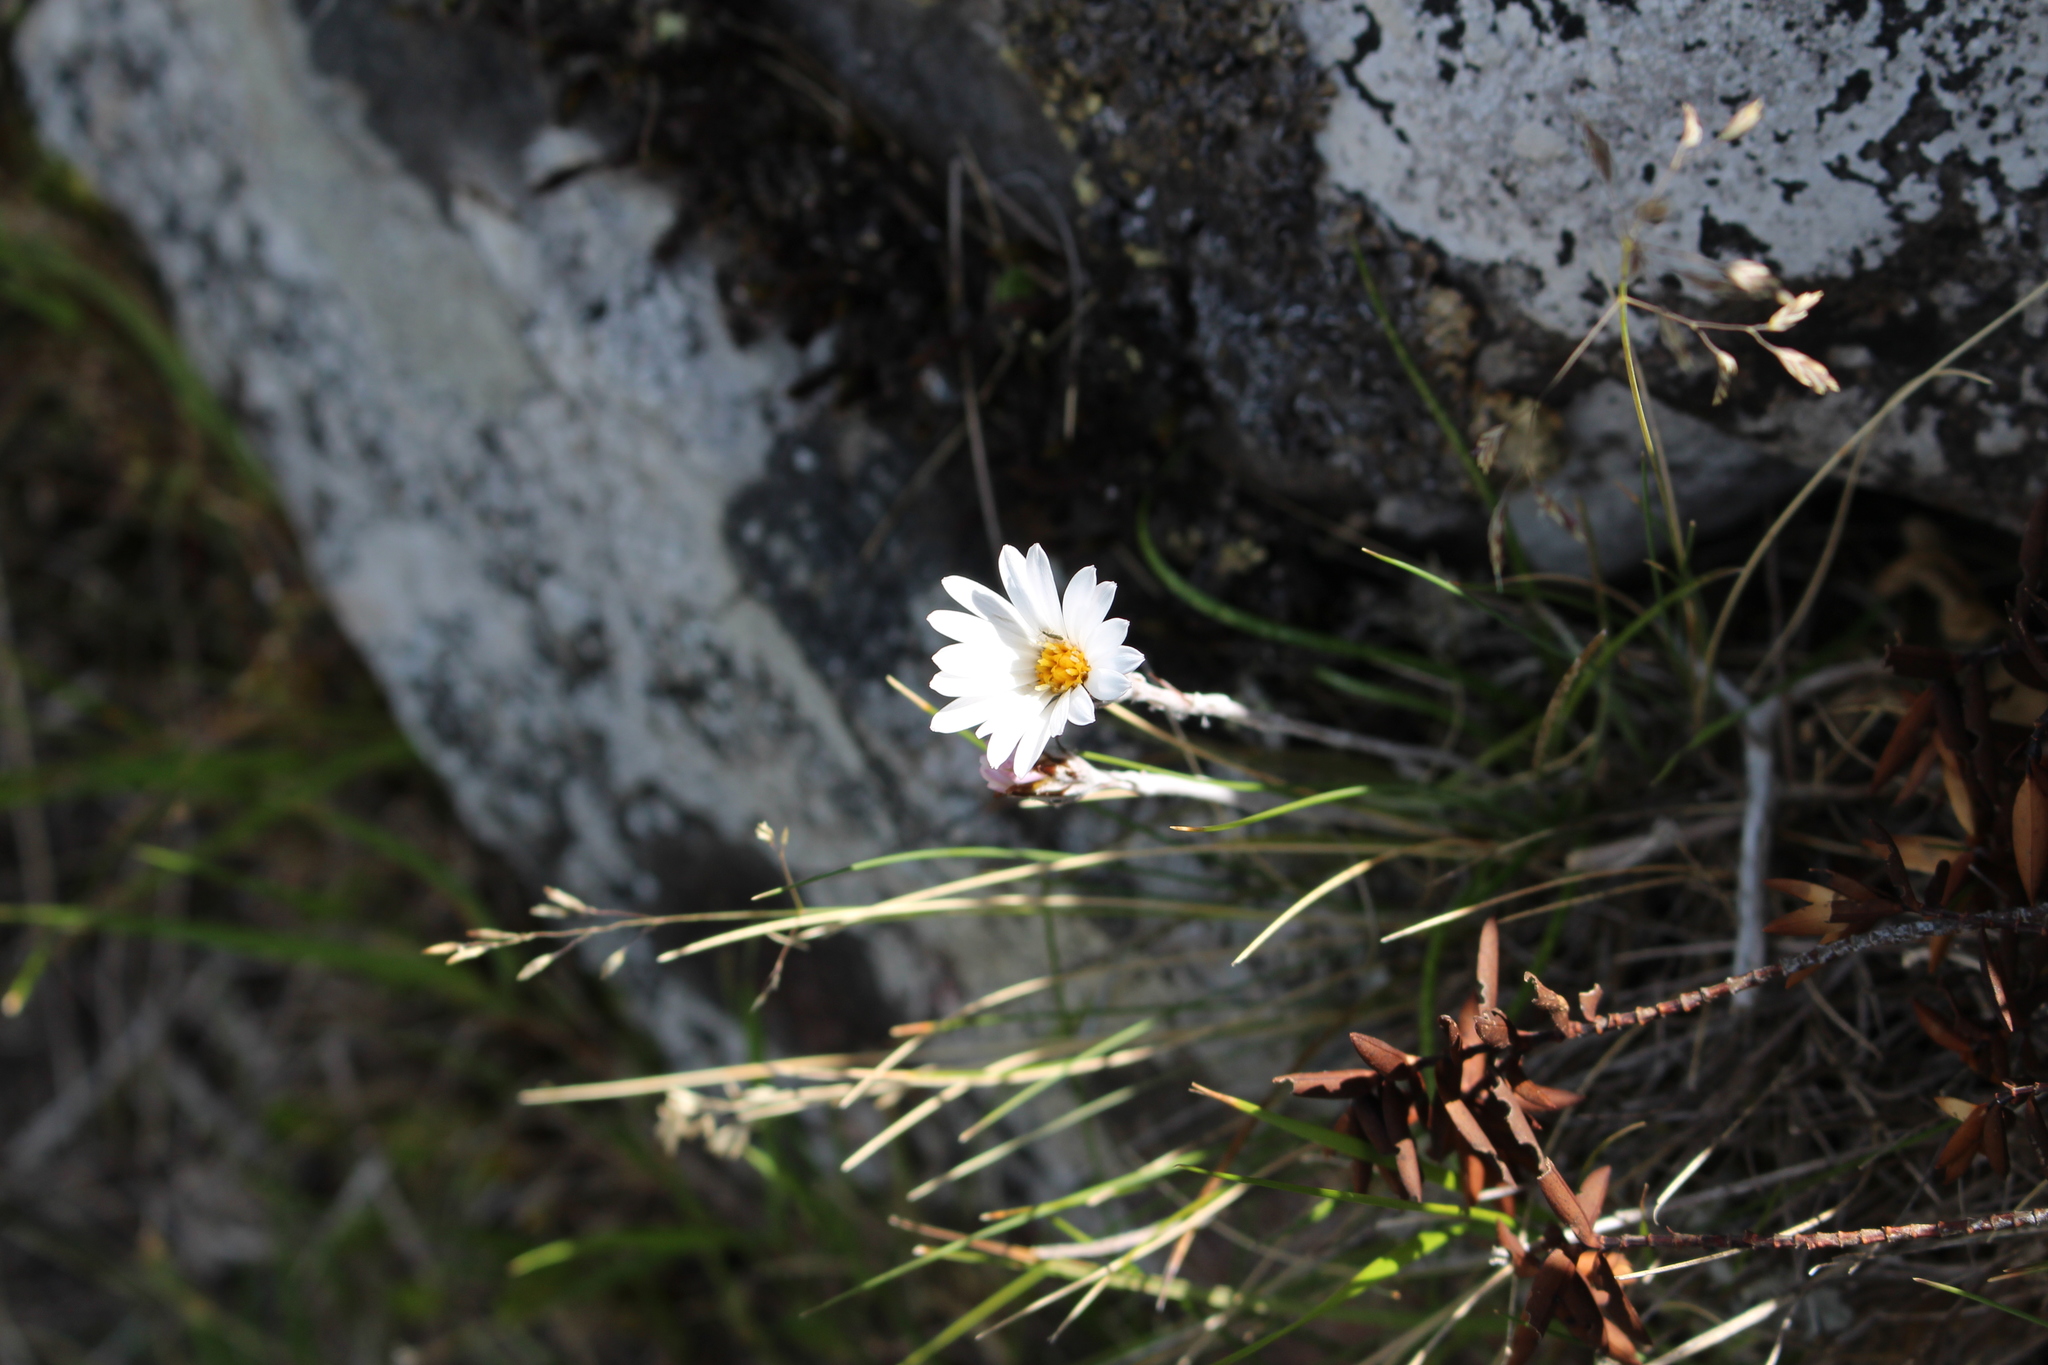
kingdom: Plantae
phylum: Tracheophyta
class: Magnoliopsida
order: Asterales
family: Asteraceae
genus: Celmisia
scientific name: Celmisia gracilenta
